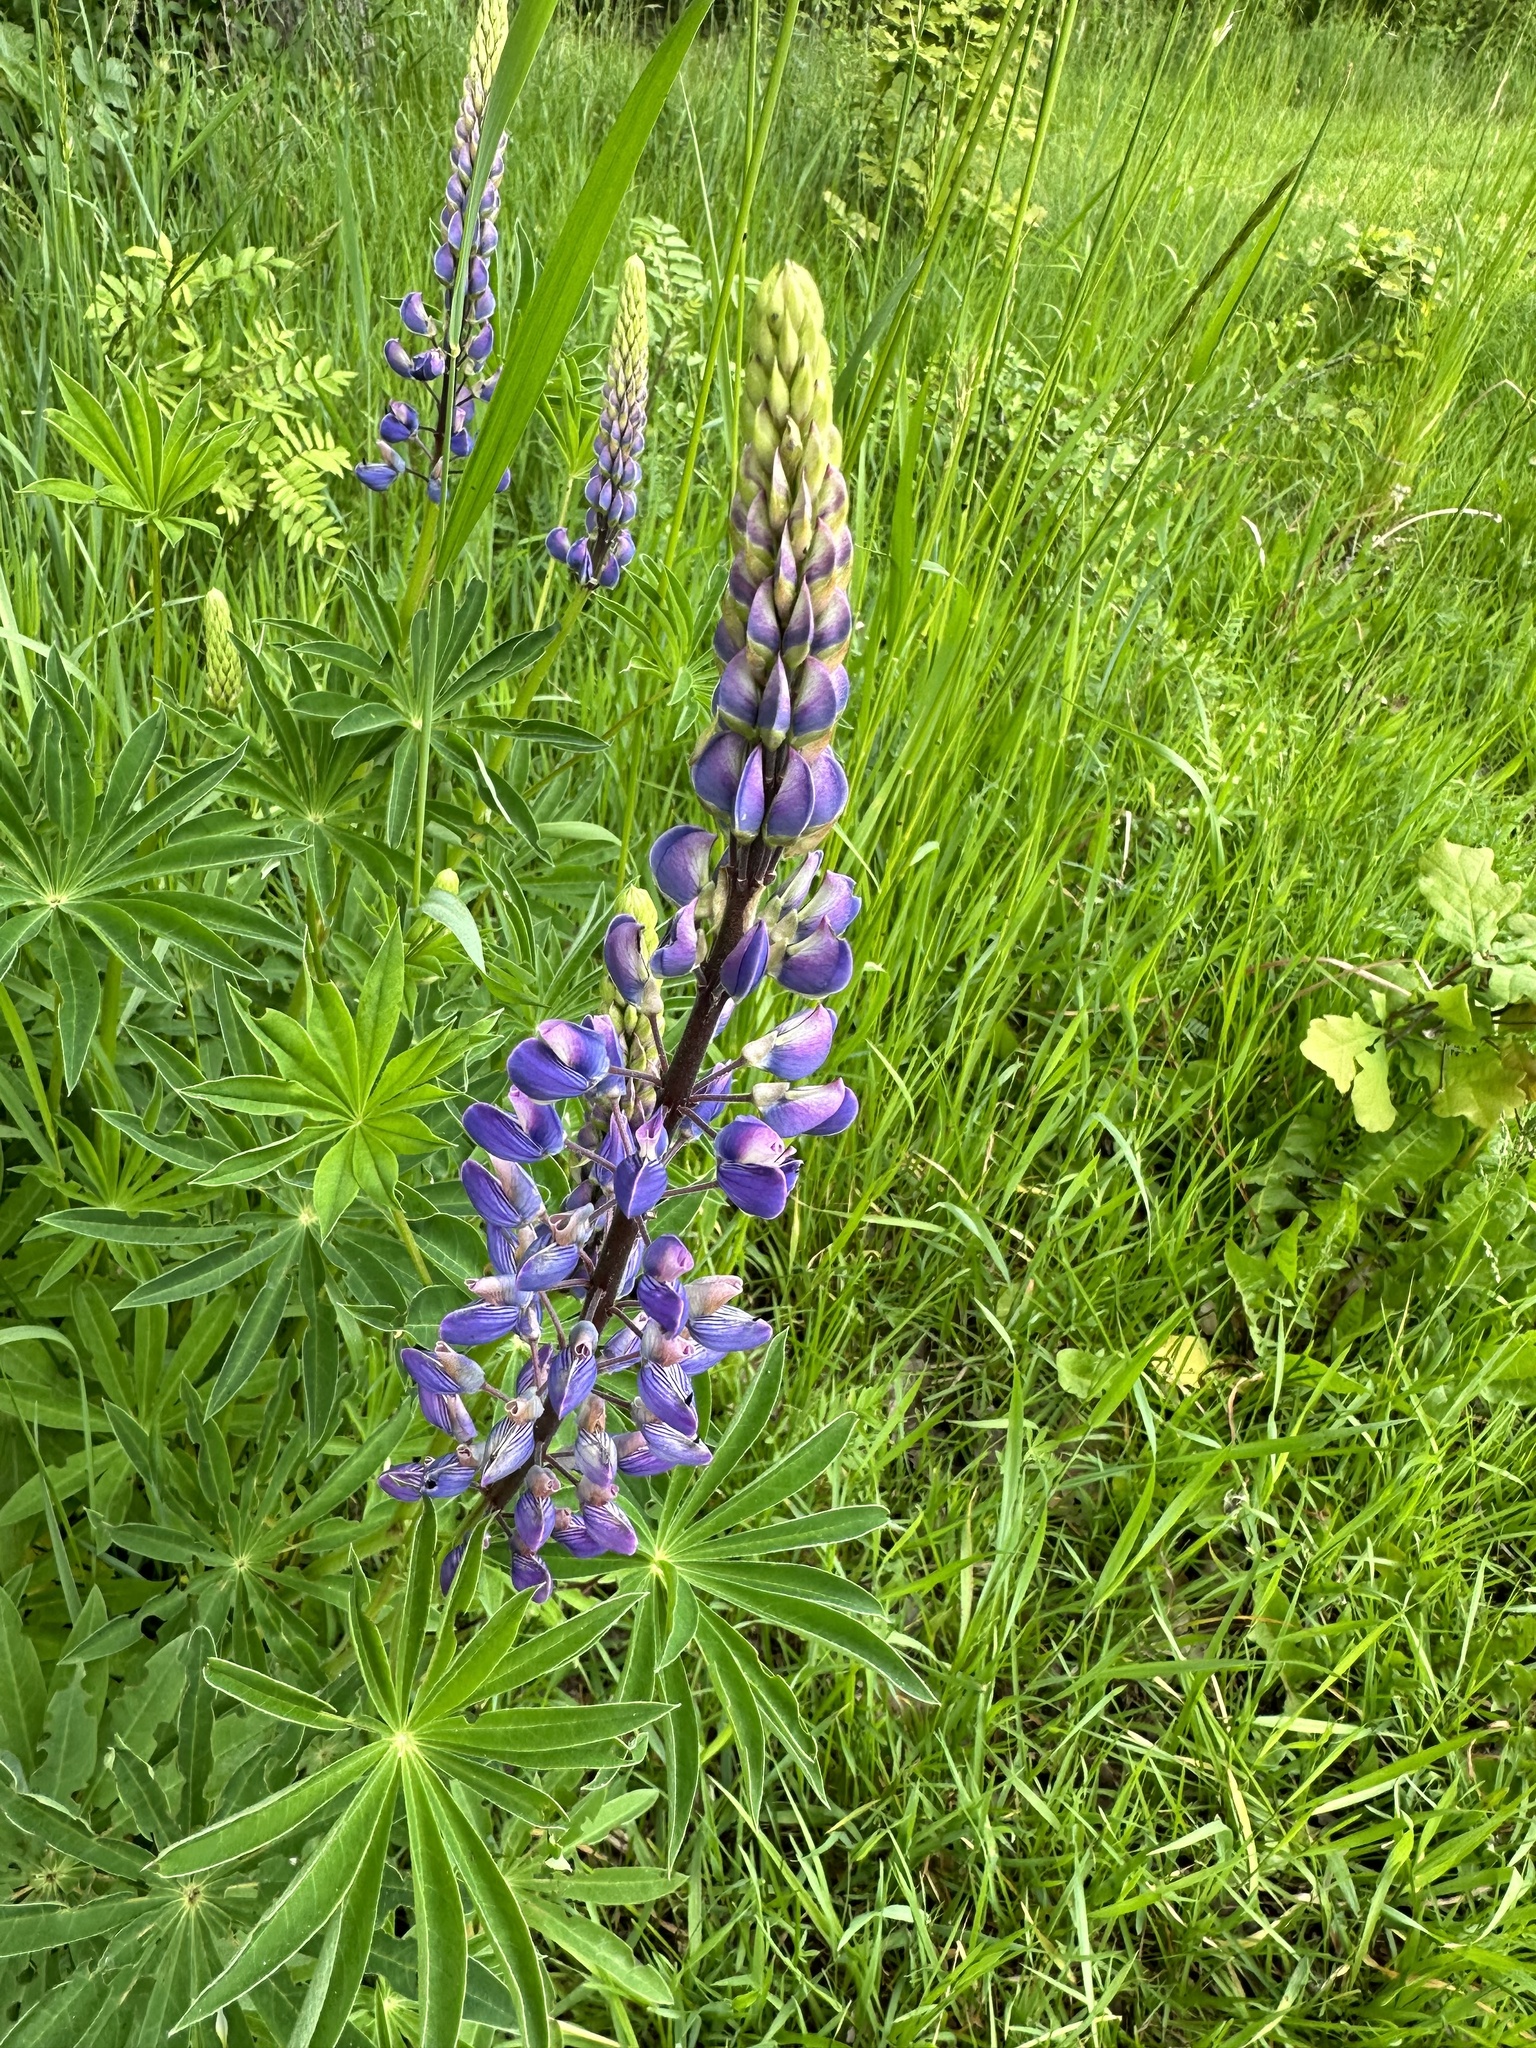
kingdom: Plantae
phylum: Tracheophyta
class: Magnoliopsida
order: Fabales
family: Fabaceae
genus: Lupinus
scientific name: Lupinus polyphyllus
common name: Garden lupin
